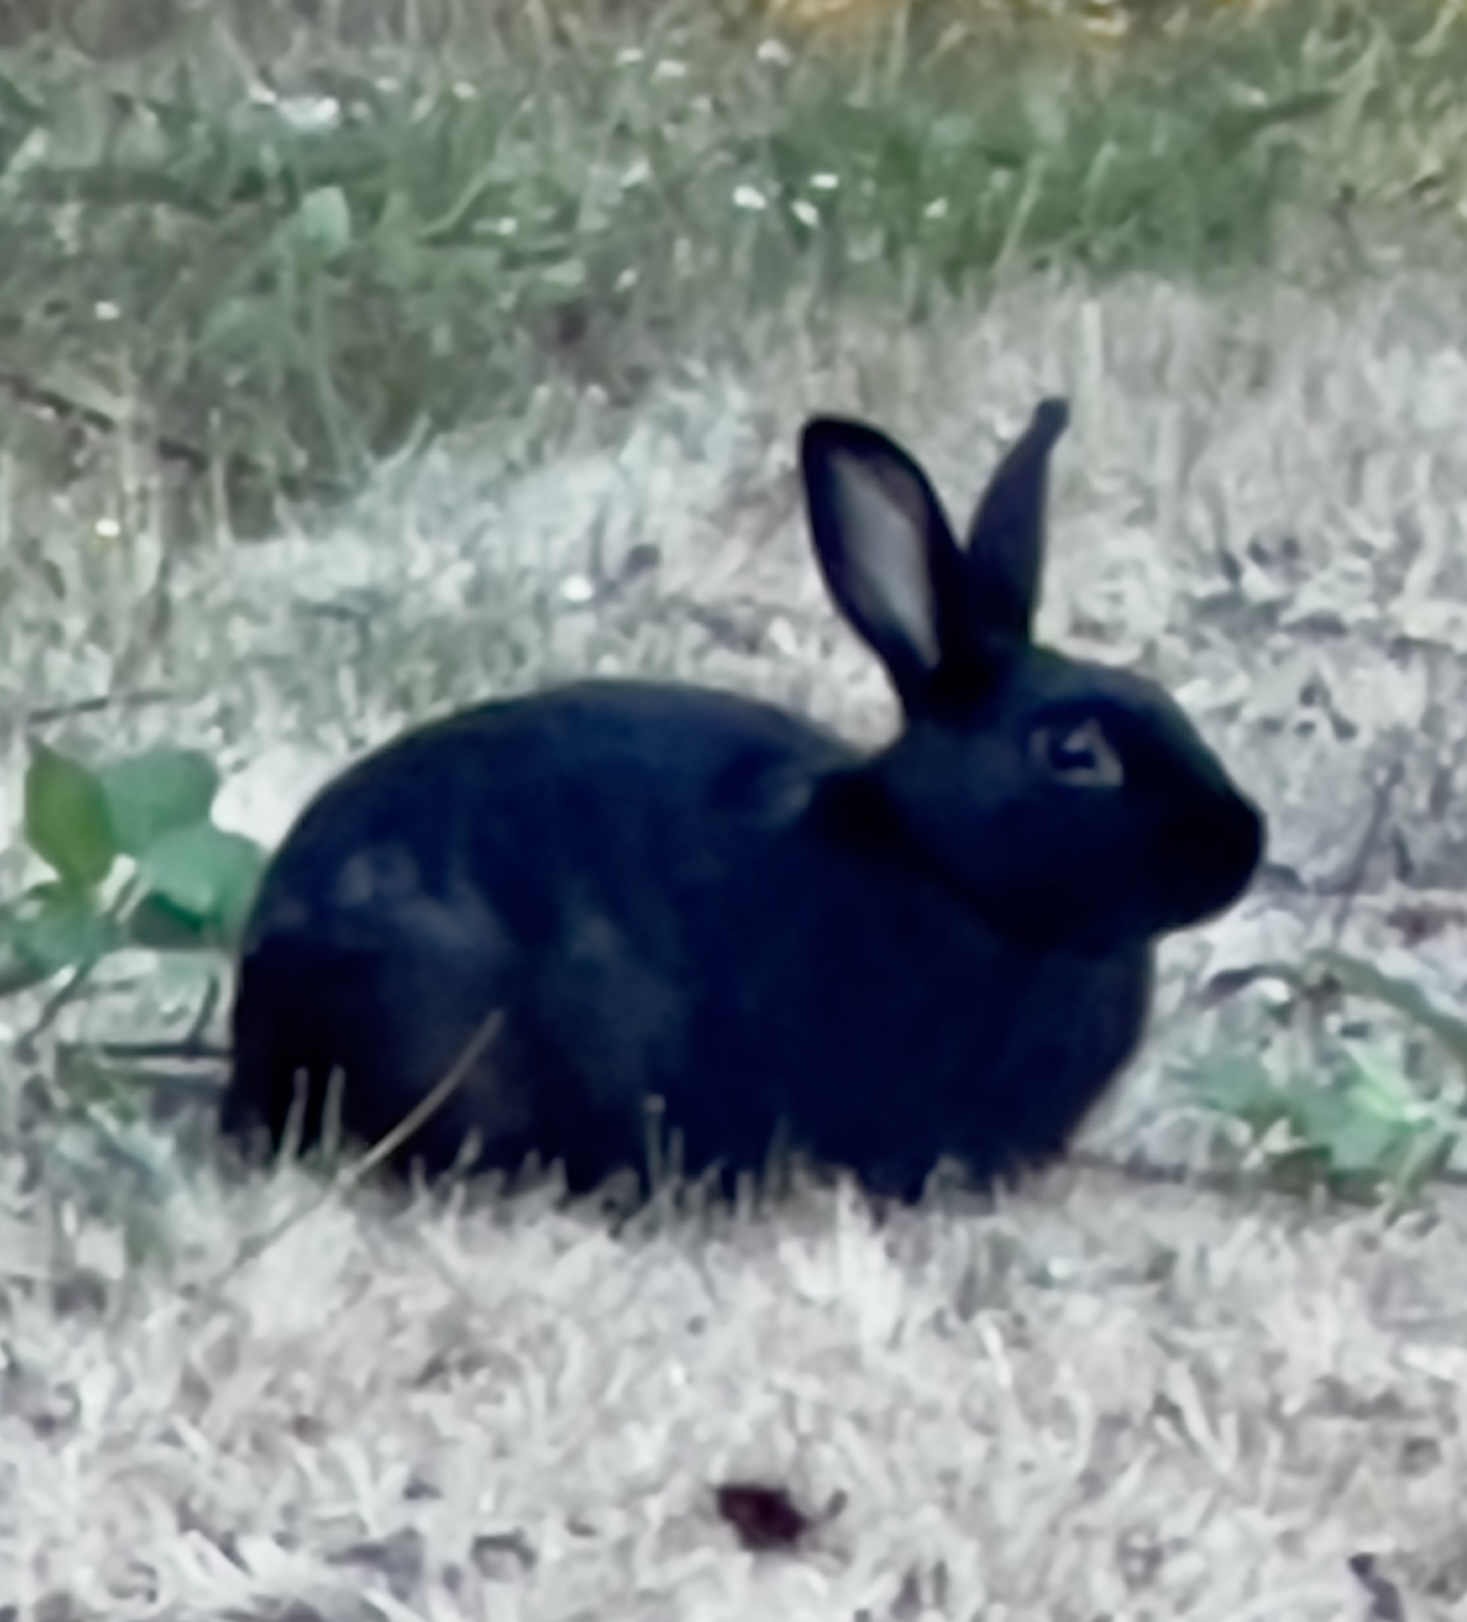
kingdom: Animalia
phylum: Chordata
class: Mammalia
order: Lagomorpha
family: Leporidae
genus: Oryctolagus
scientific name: Oryctolagus cuniculus
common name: European rabbit
